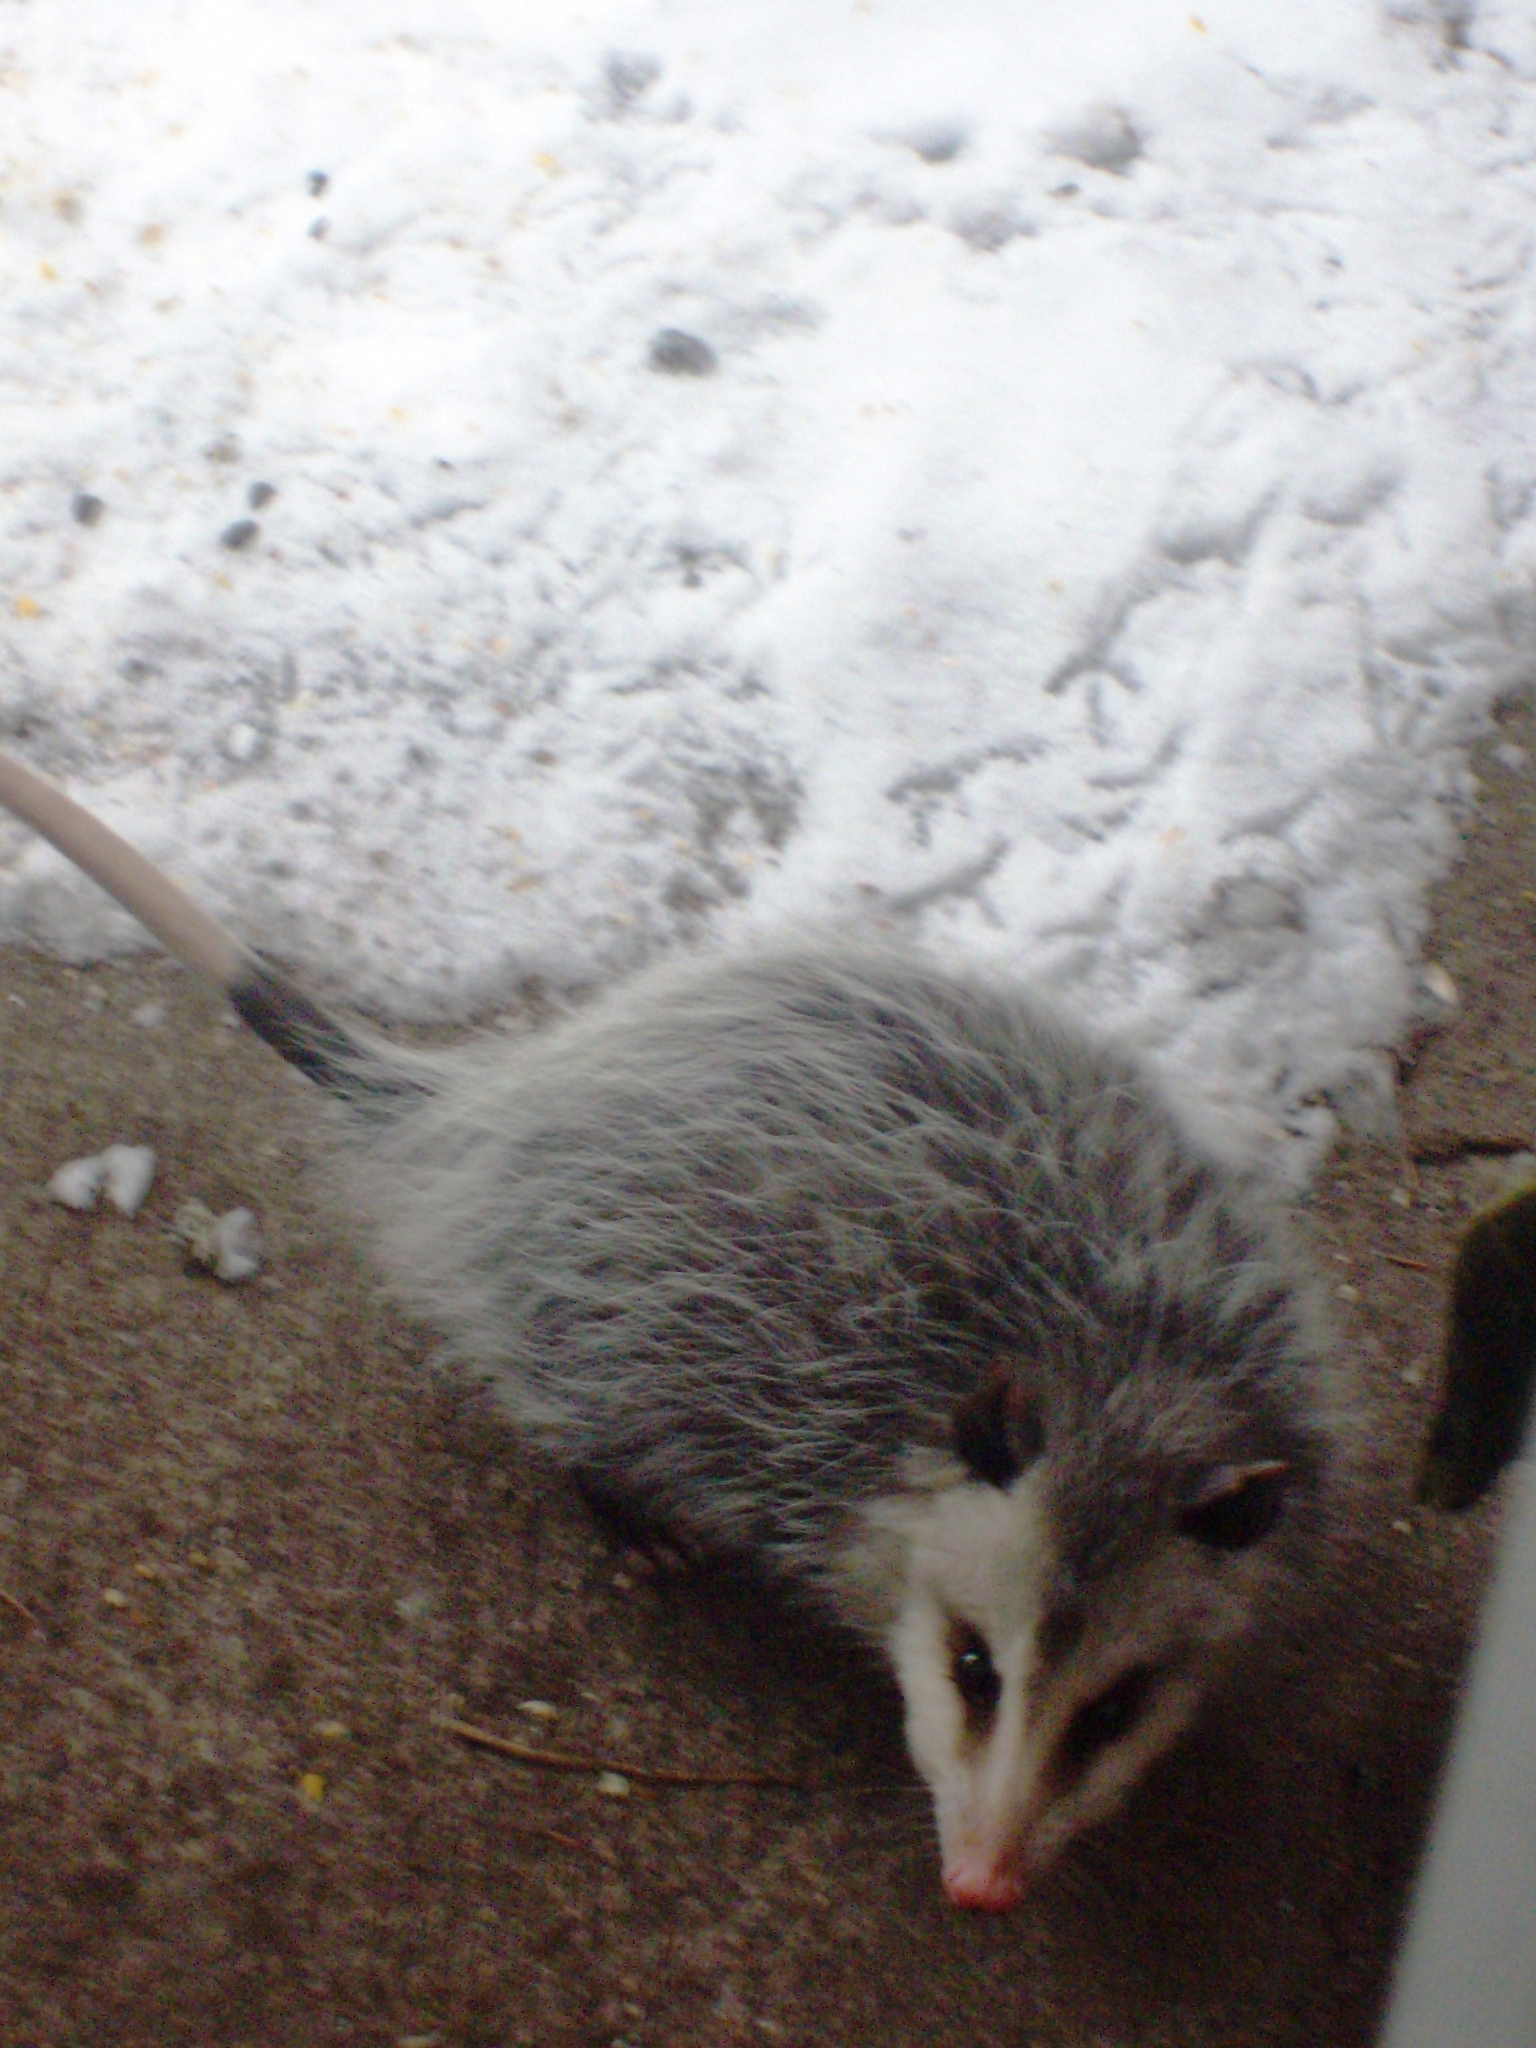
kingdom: Animalia
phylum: Chordata
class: Mammalia
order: Didelphimorphia
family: Didelphidae
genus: Didelphis
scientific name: Didelphis virginiana
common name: Virginia opossum
